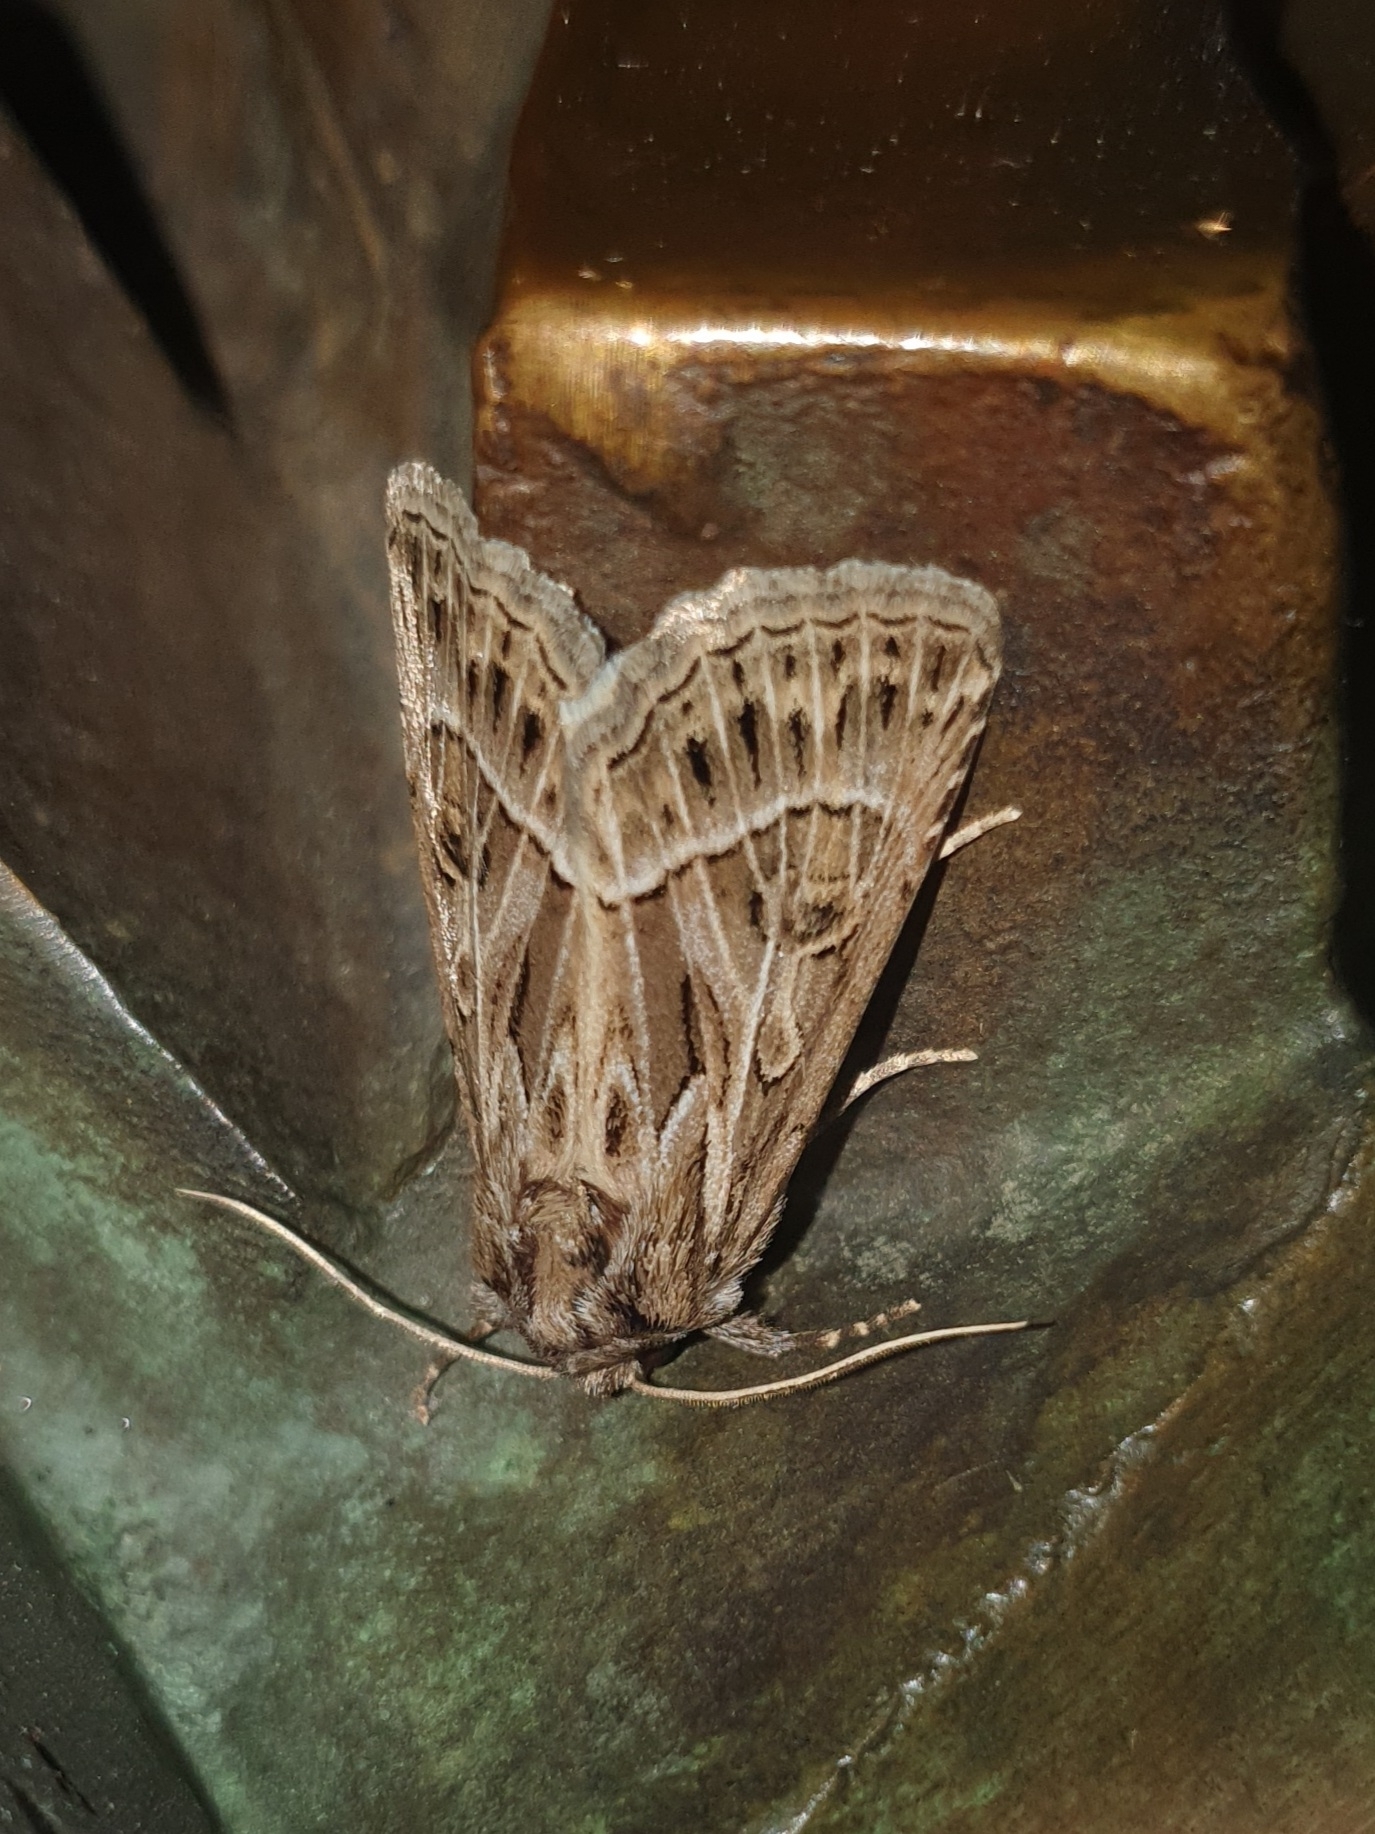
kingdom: Animalia
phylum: Arthropoda
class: Insecta
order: Lepidoptera
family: Noctuidae
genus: Thalpophila
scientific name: Thalpophila vitalba
